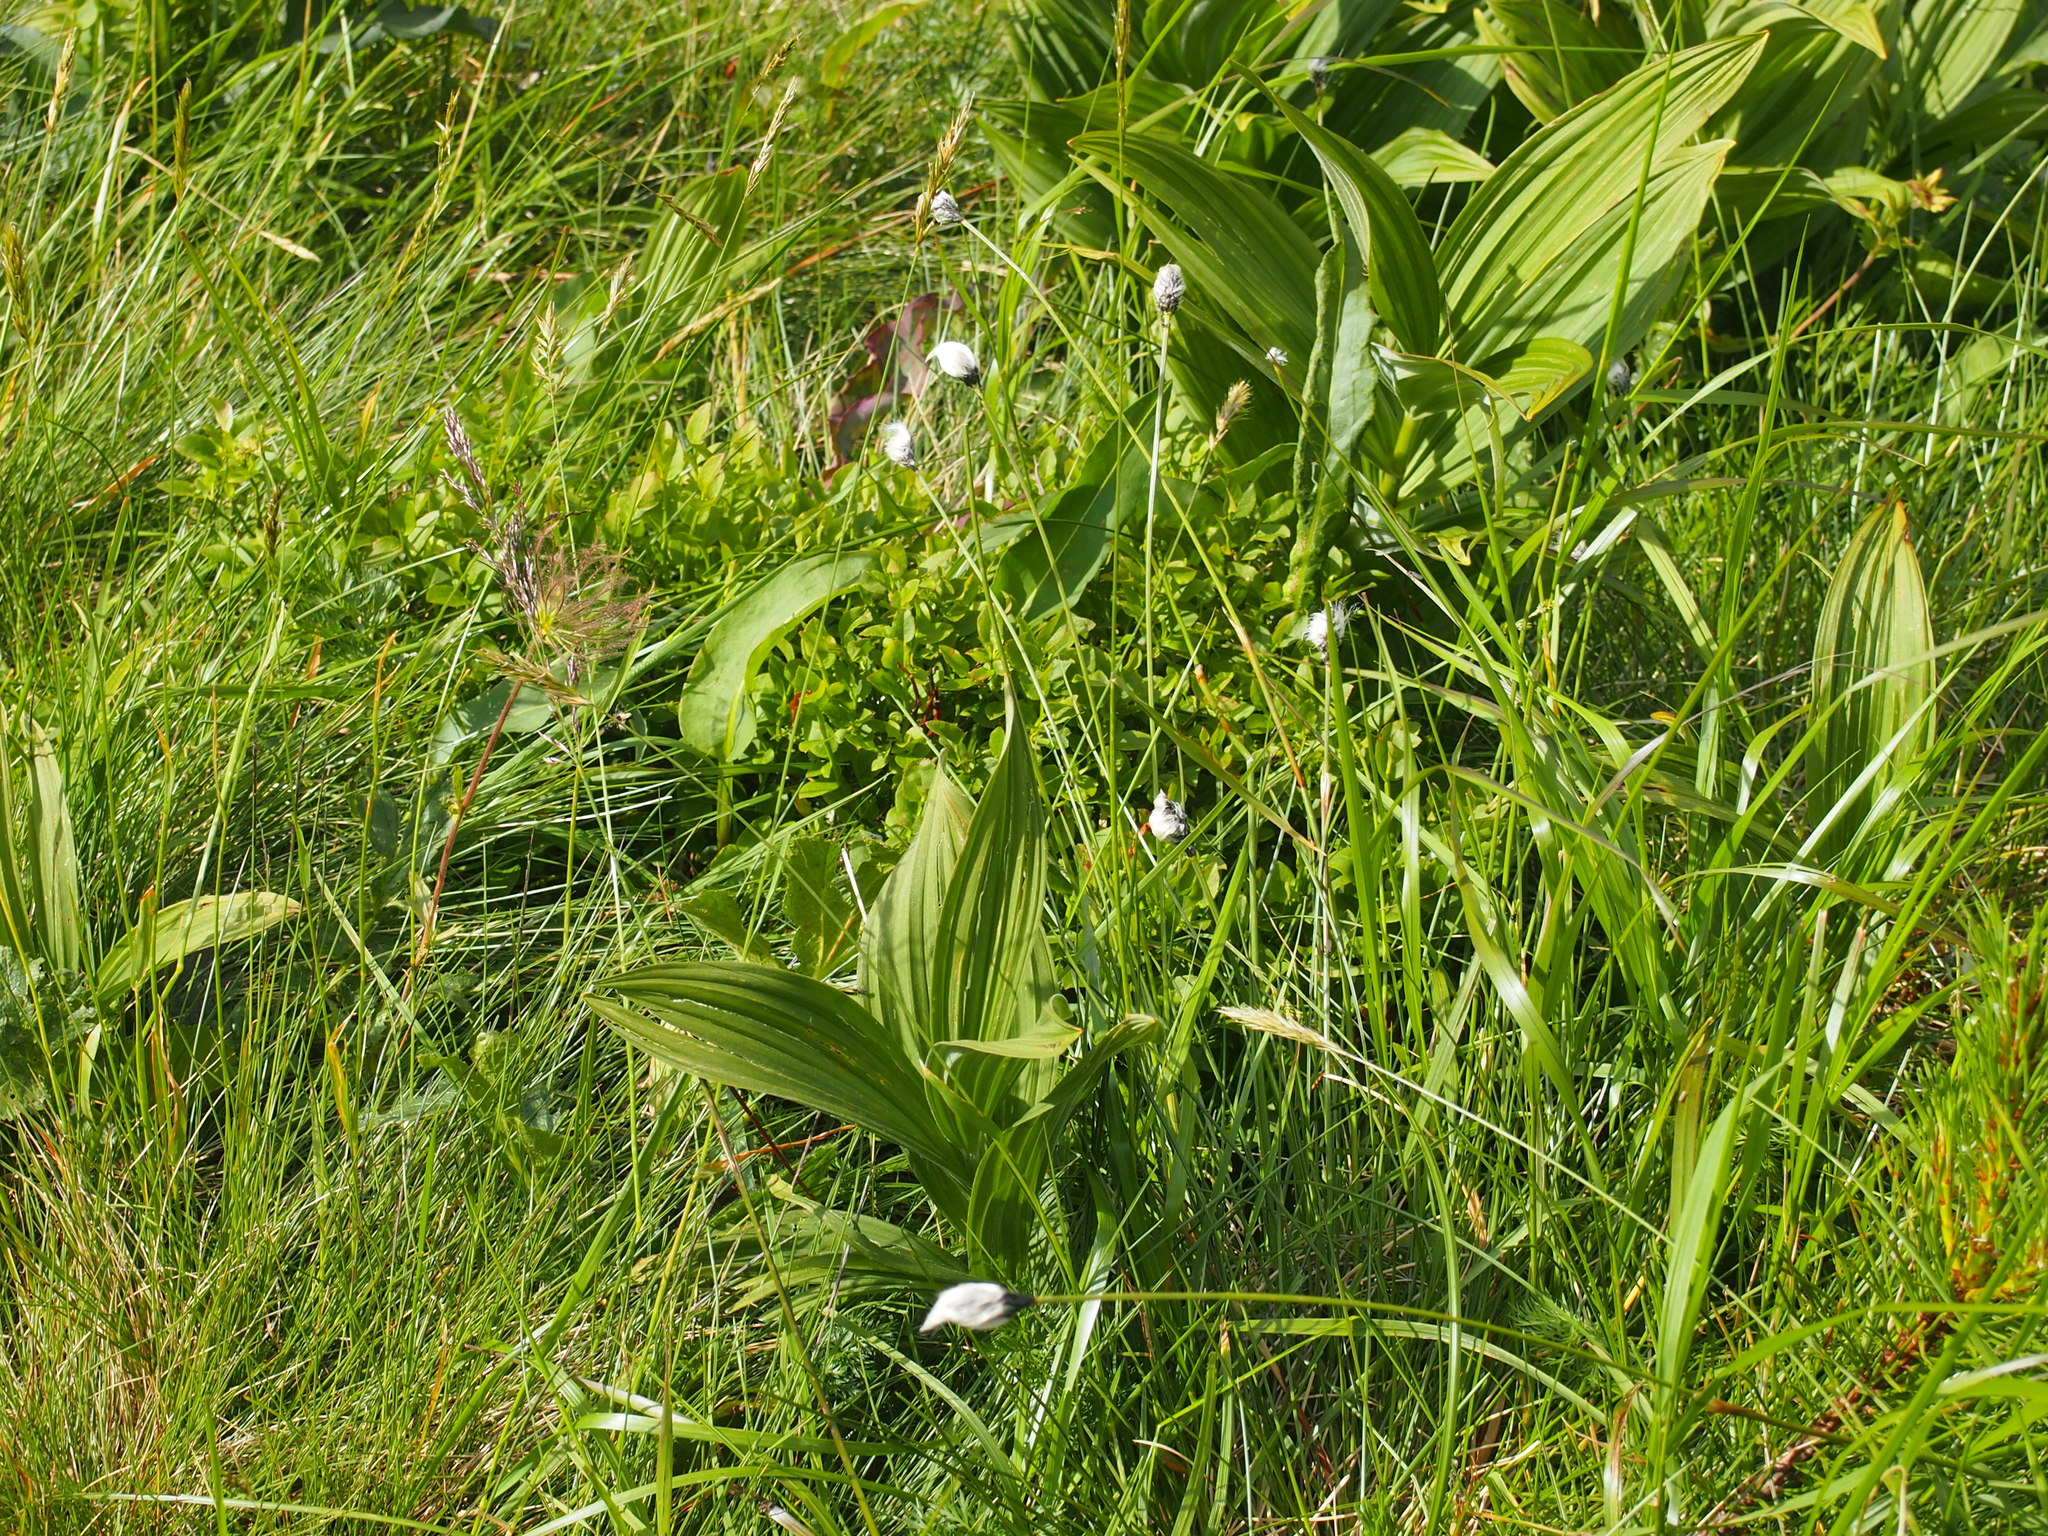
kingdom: Plantae
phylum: Tracheophyta
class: Liliopsida
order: Poales
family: Cyperaceae
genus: Eriophorum
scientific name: Eriophorum vaginatum
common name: Hare's-tail cottongrass
